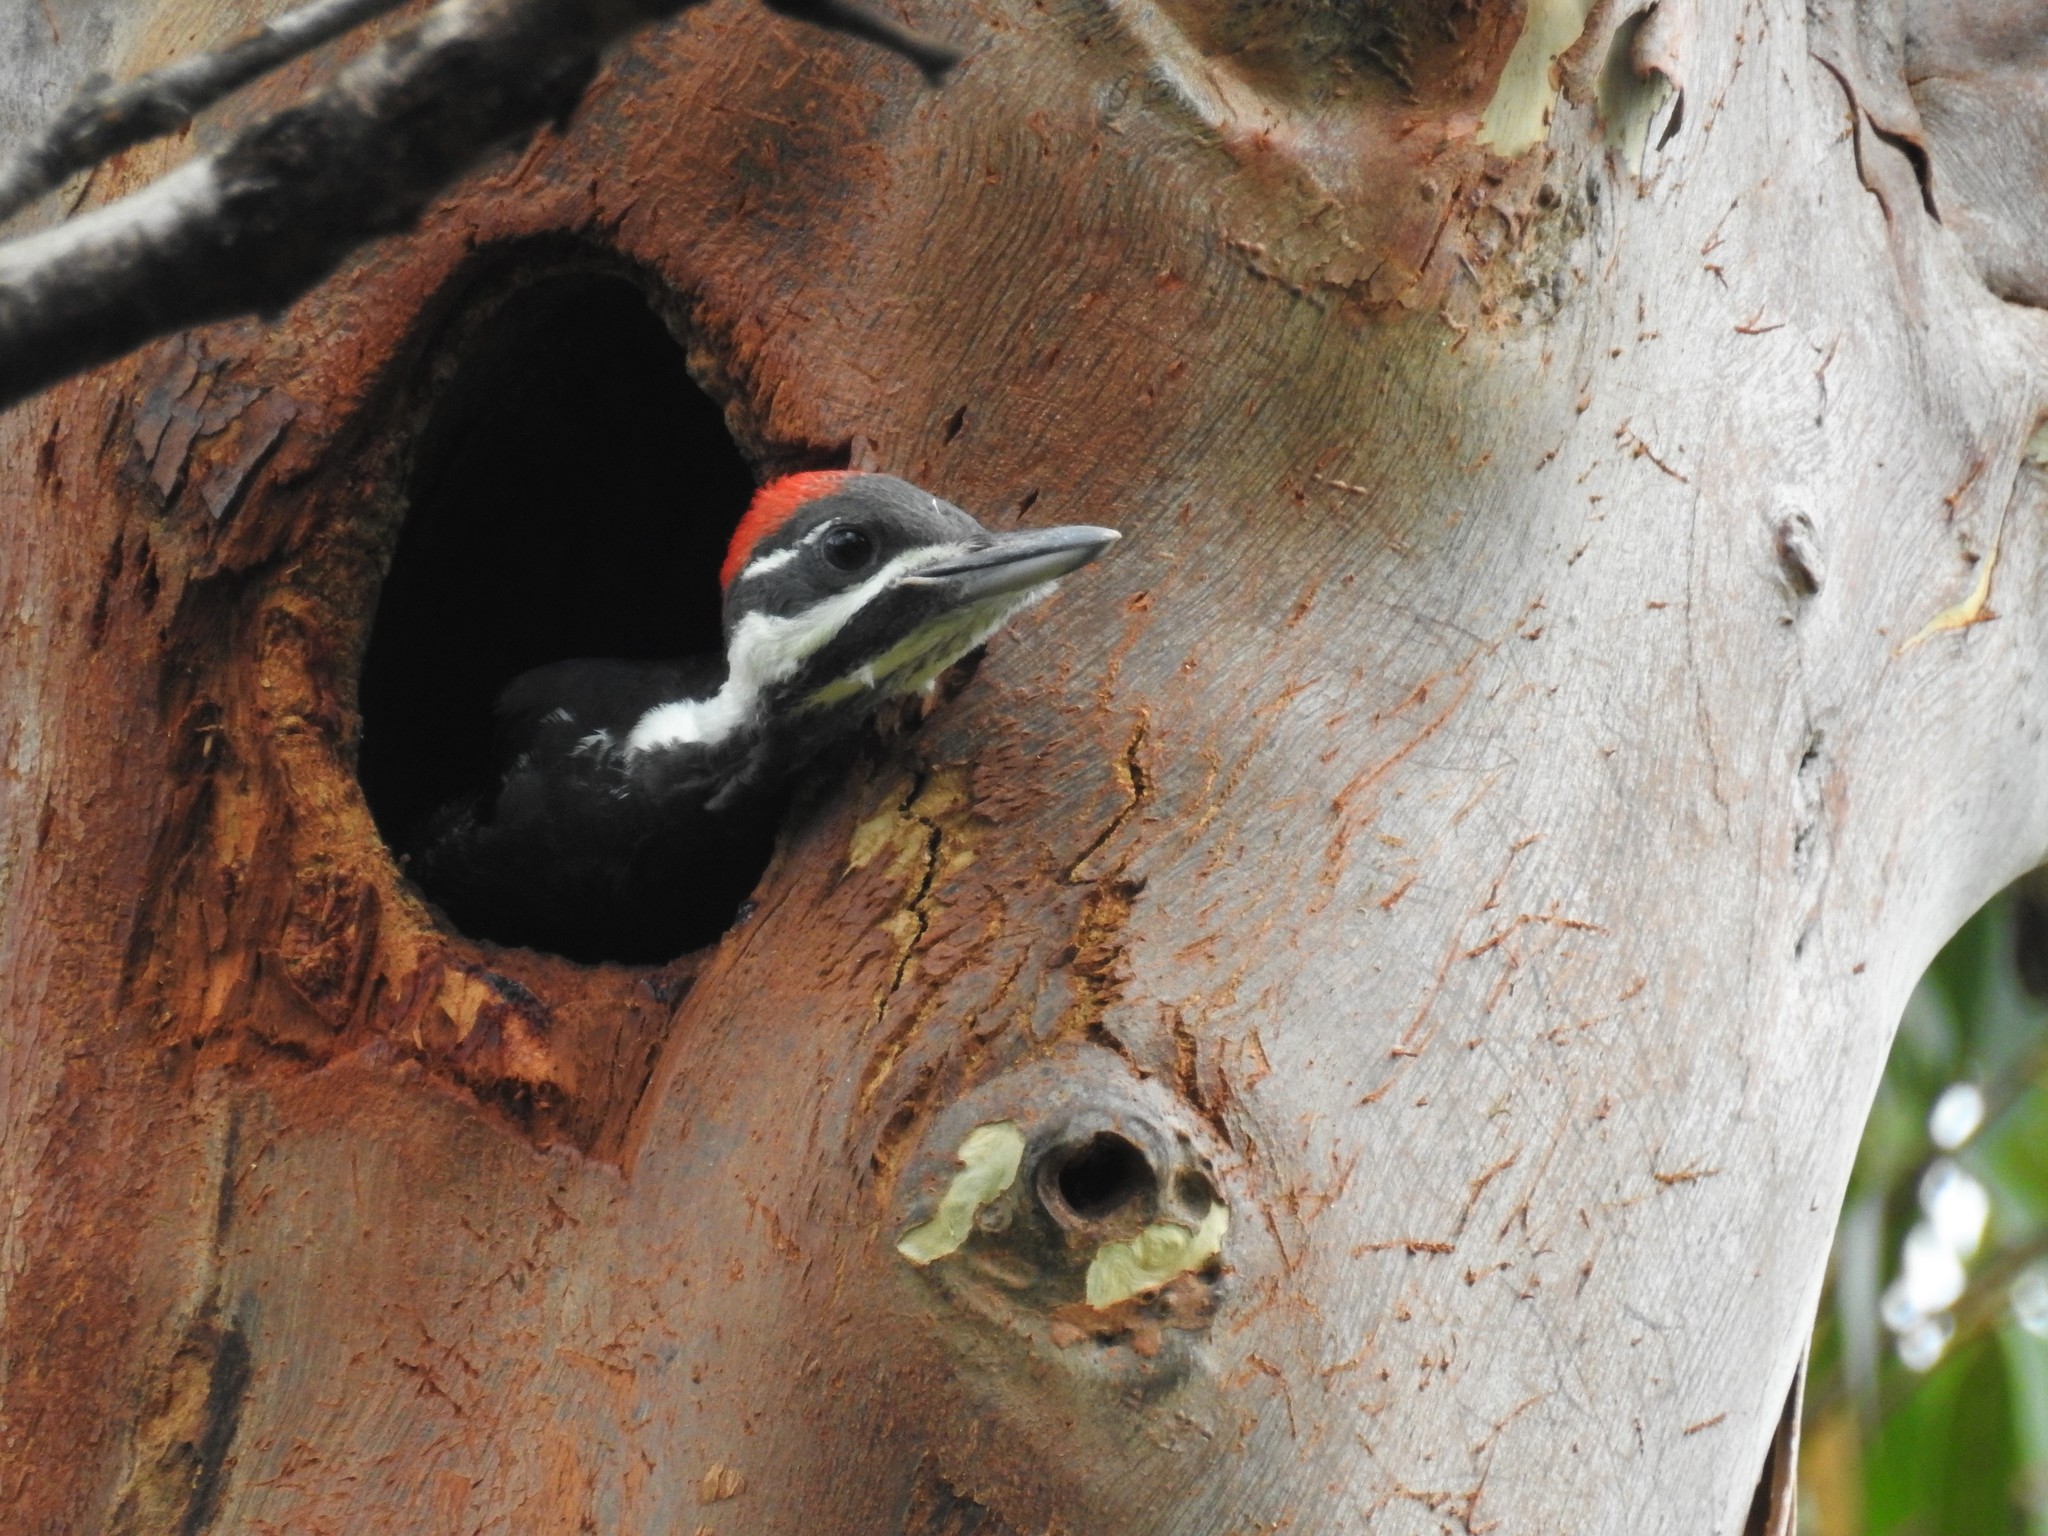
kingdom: Animalia
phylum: Chordata
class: Aves
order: Piciformes
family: Picidae
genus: Dryocopus
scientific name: Dryocopus pileatus
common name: Pileated woodpecker
